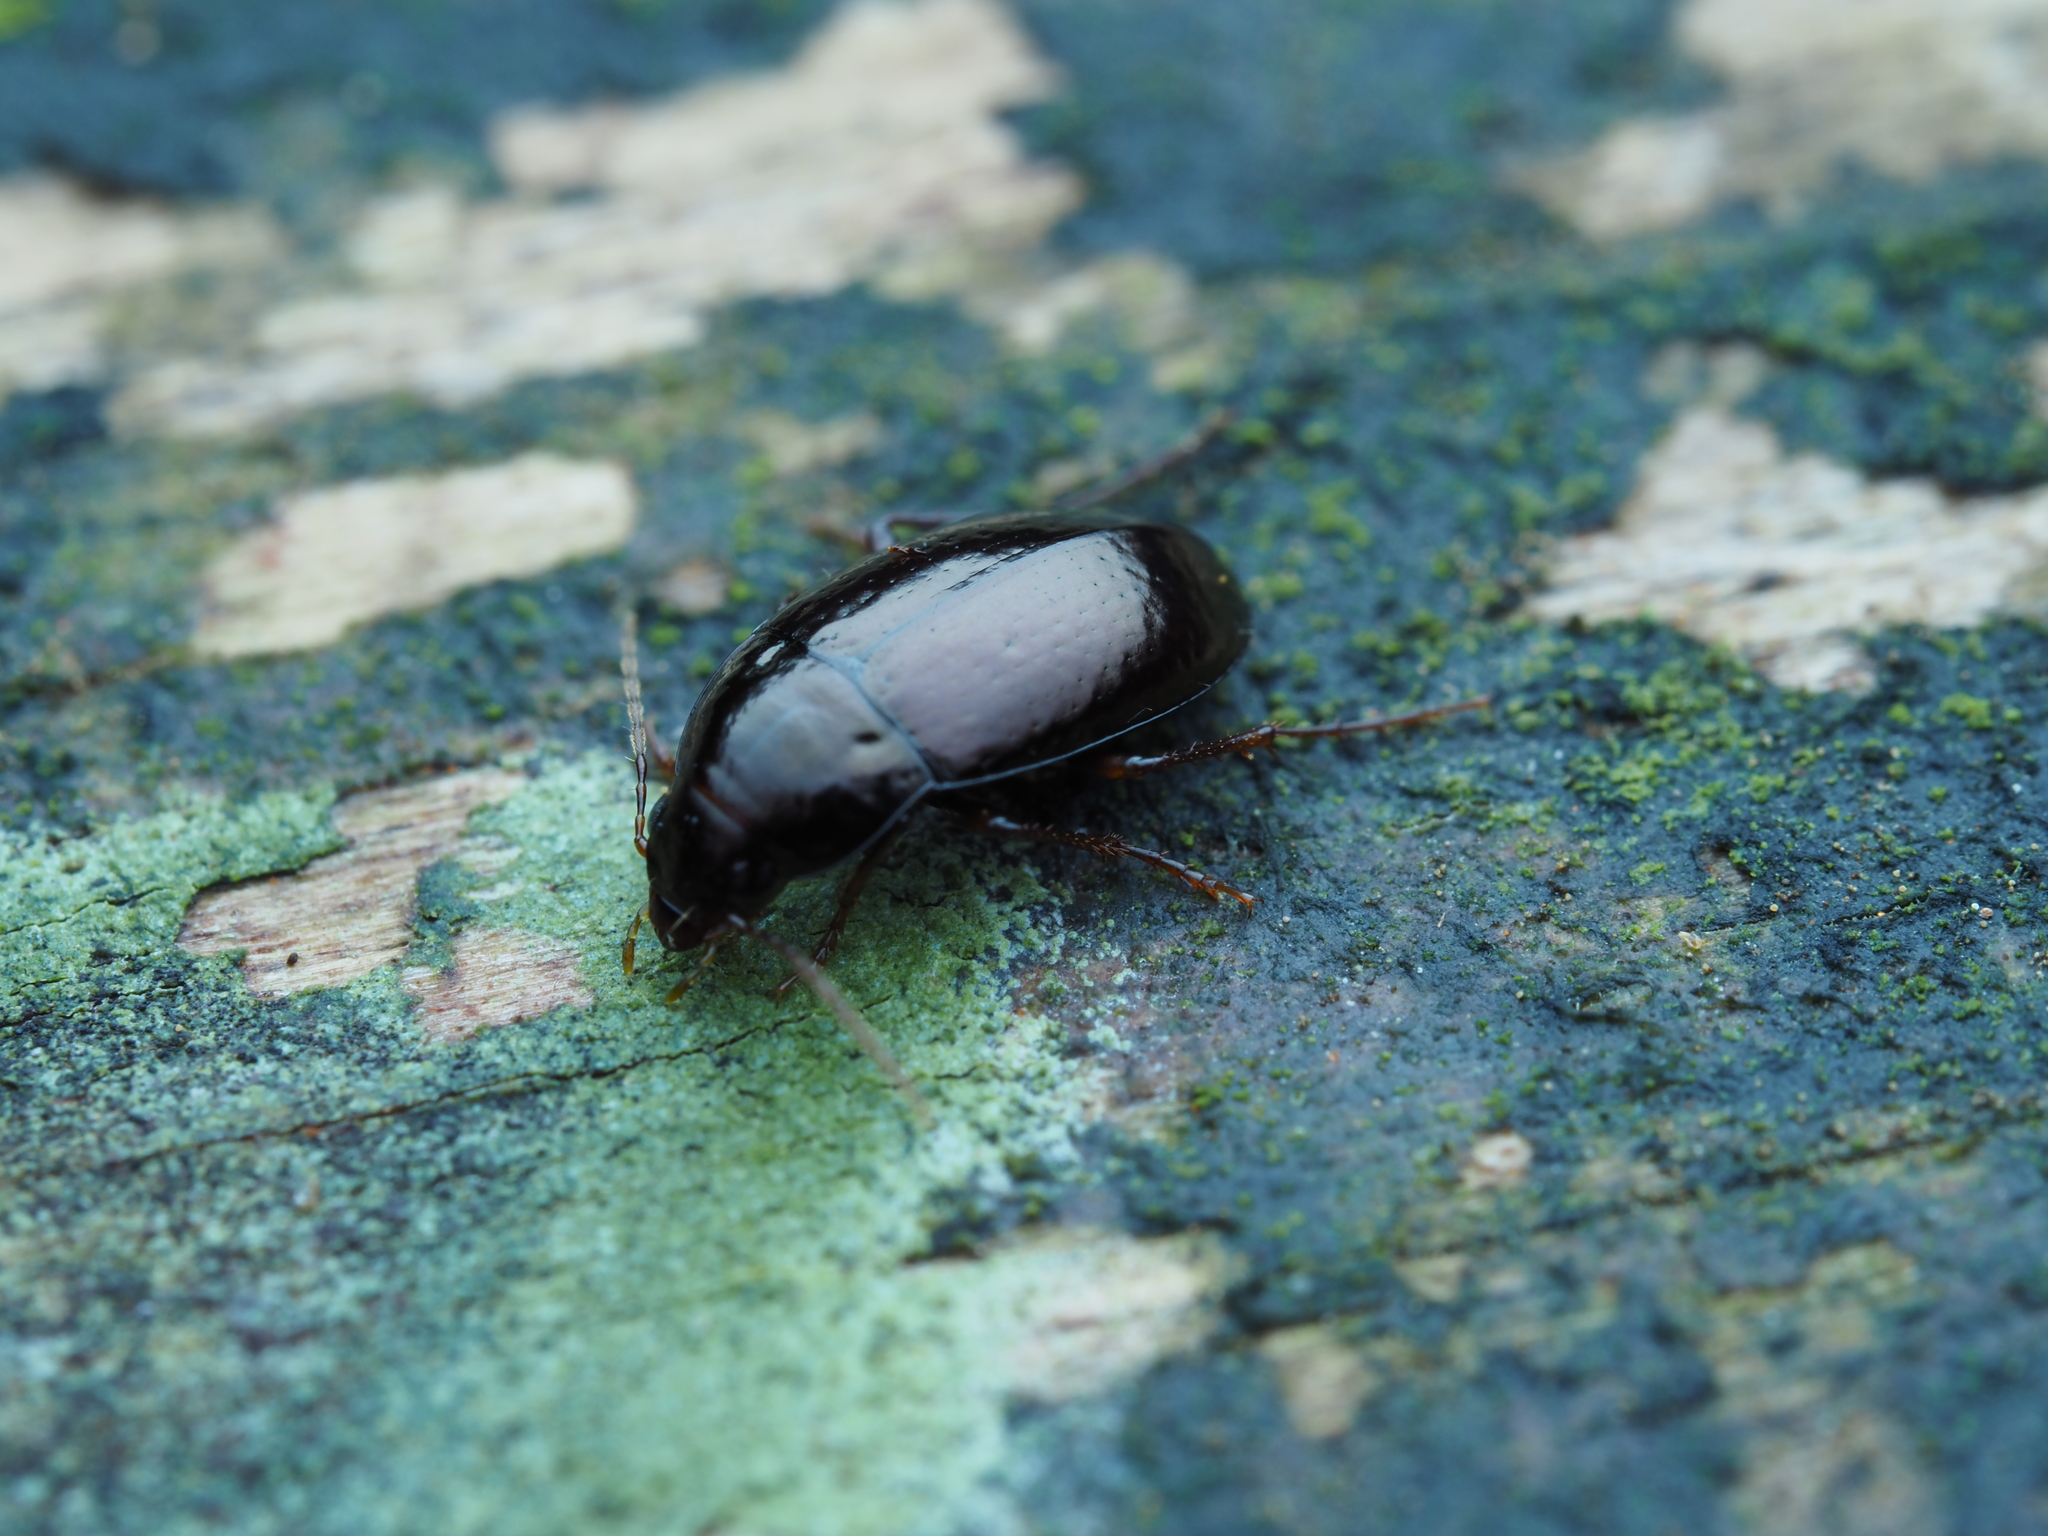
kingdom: Animalia
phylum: Arthropoda
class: Insecta
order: Coleoptera
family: Carabidae
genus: Amarotypus
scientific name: Amarotypus edwardsii
